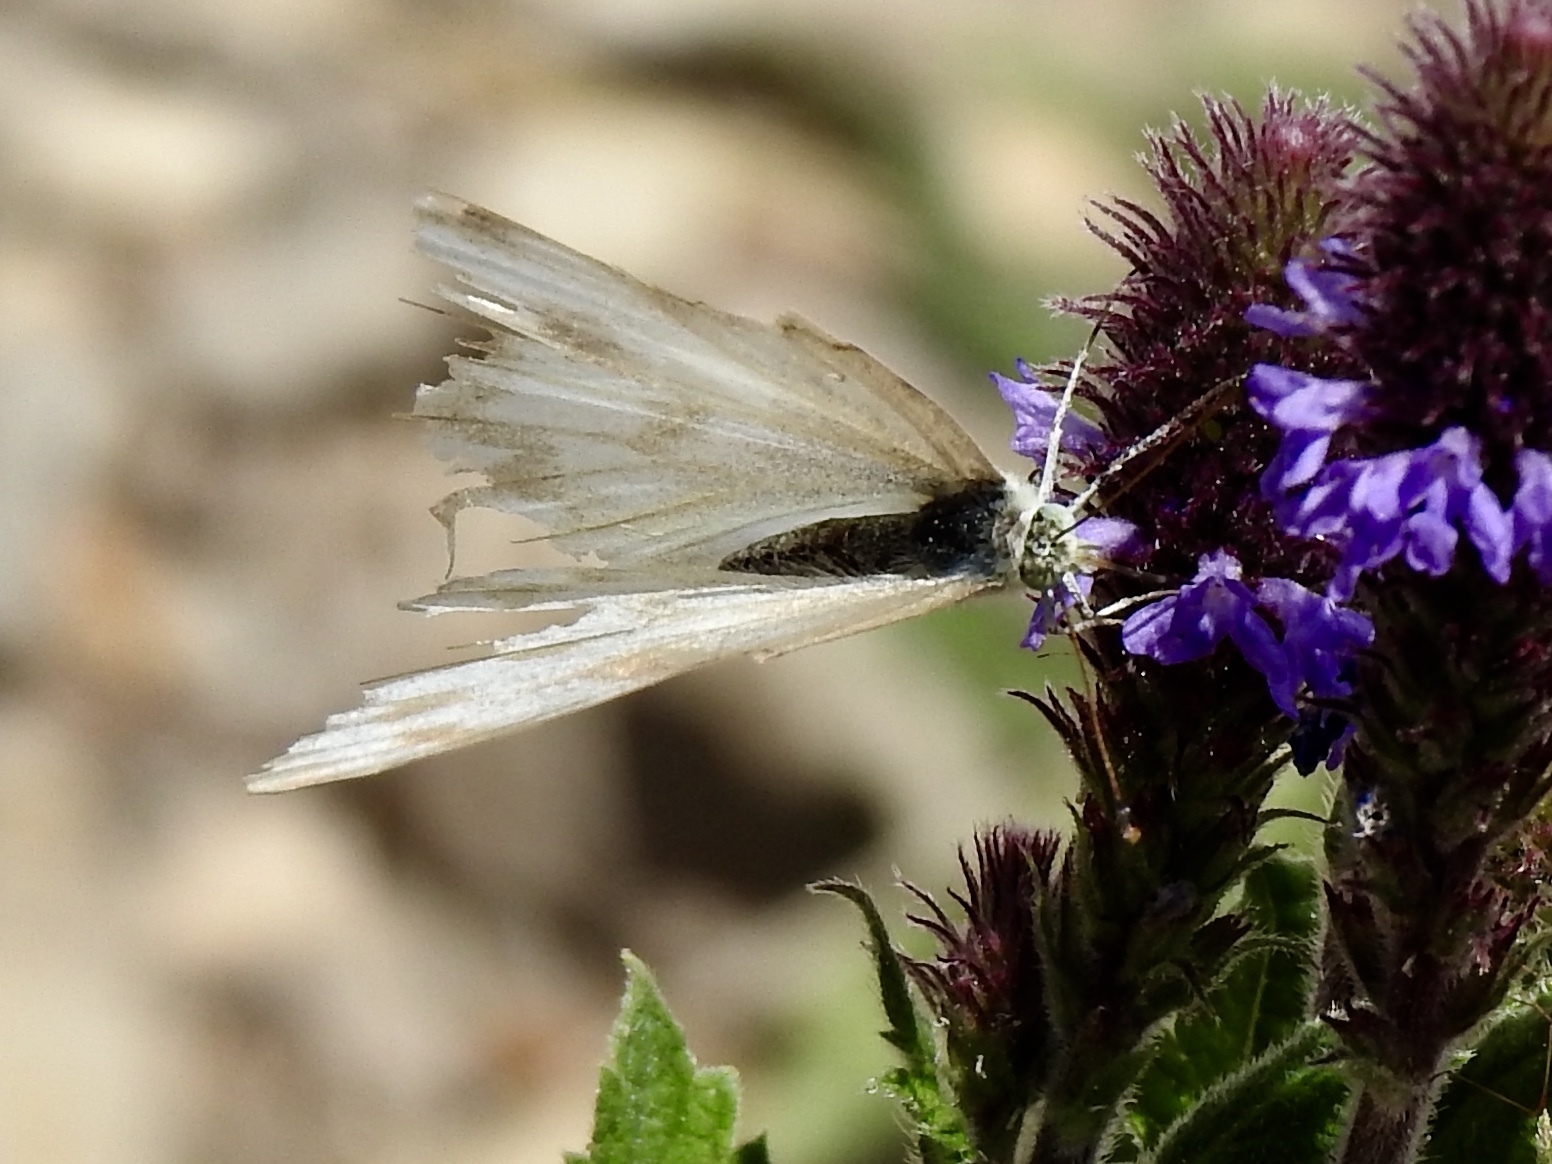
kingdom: Animalia
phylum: Arthropoda
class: Insecta
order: Lepidoptera
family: Pieridae
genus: Pontia
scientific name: Pontia protodice
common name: Checkered white
